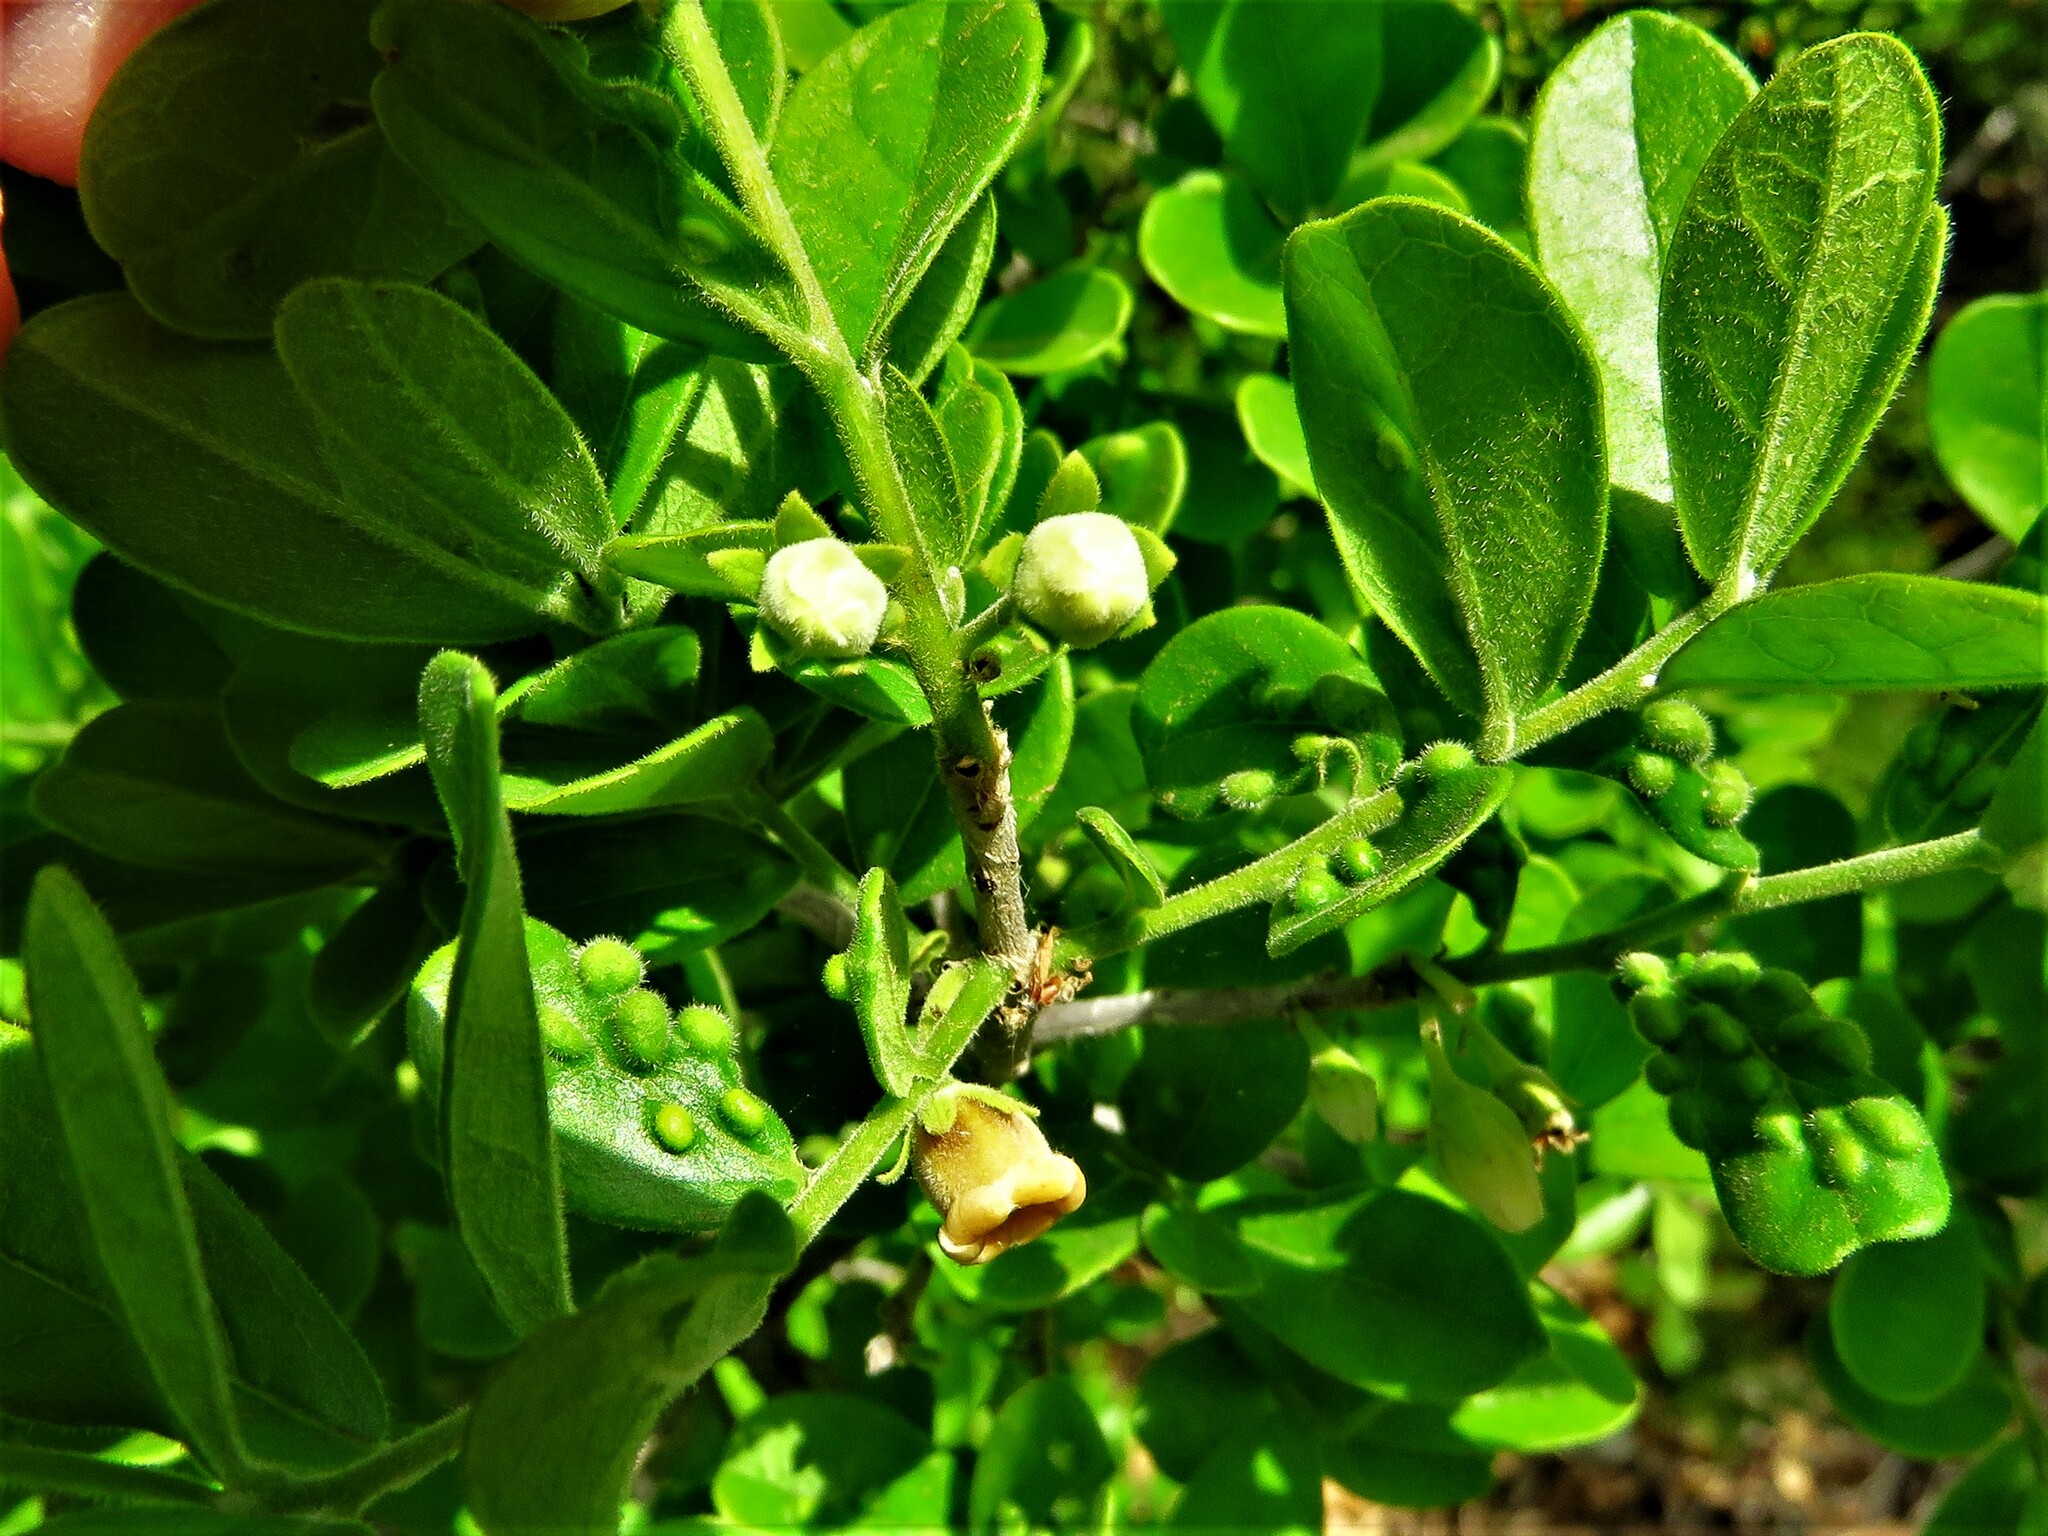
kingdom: Plantae
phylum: Tracheophyta
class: Magnoliopsida
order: Ericales
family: Ebenaceae
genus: Diospyros
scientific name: Diospyros texana
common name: Texas persimmon
